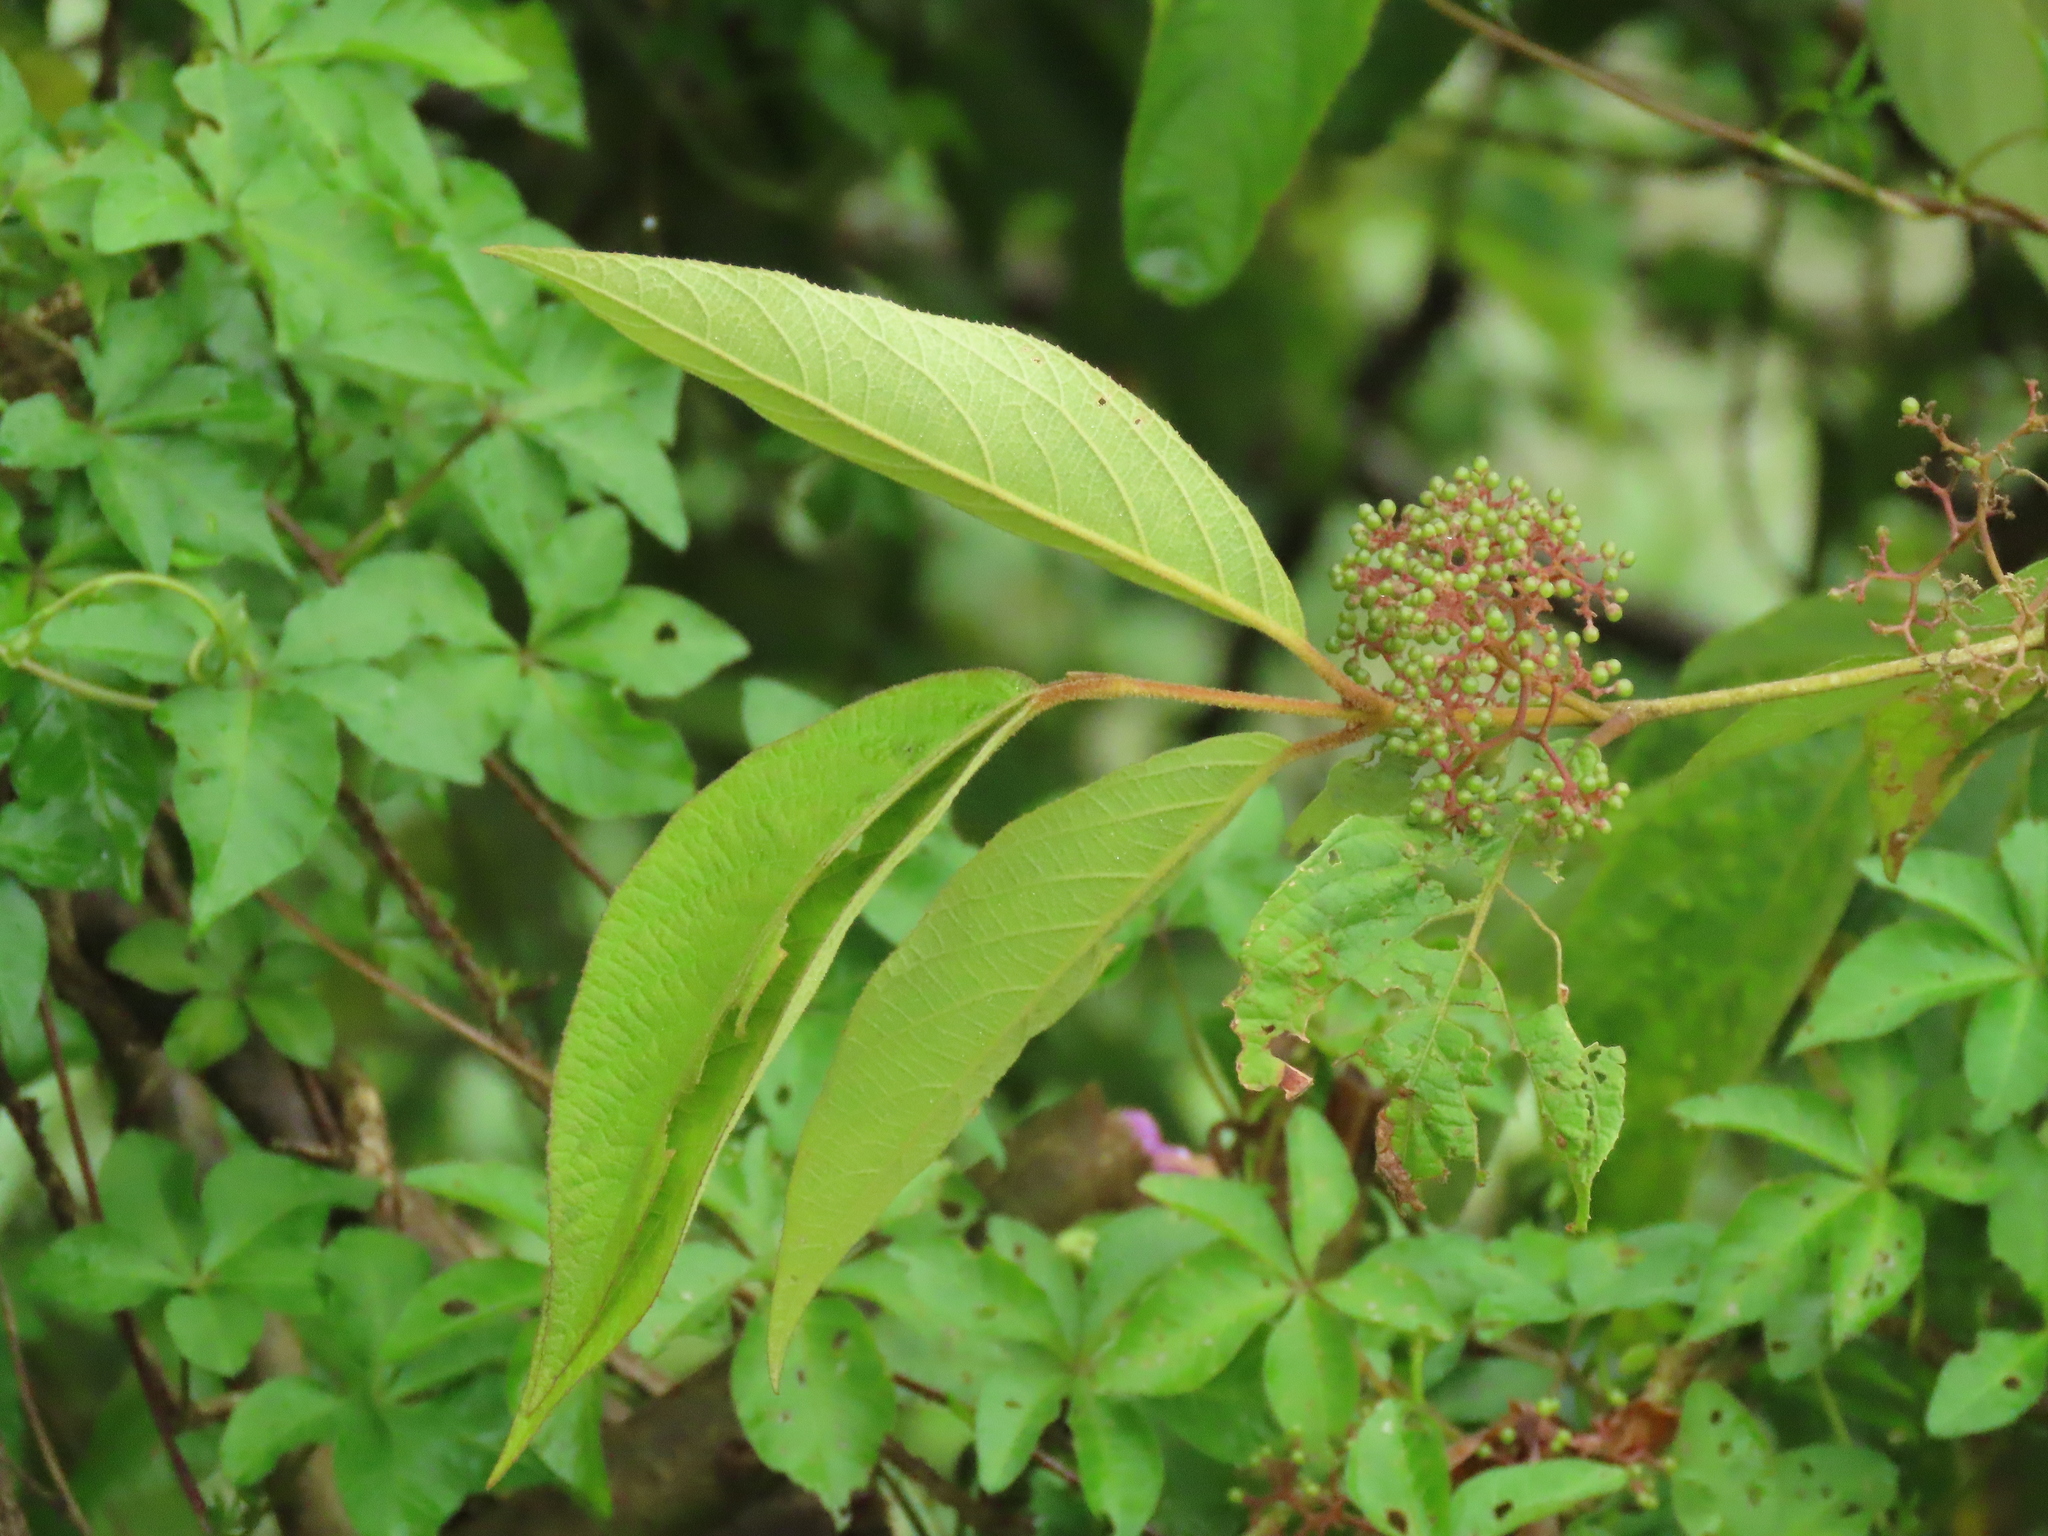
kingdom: Plantae
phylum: Tracheophyta
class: Magnoliopsida
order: Lamiales
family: Lamiaceae
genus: Callicarpa
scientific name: Callicarpa pedunculata
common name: Velvetleaf
